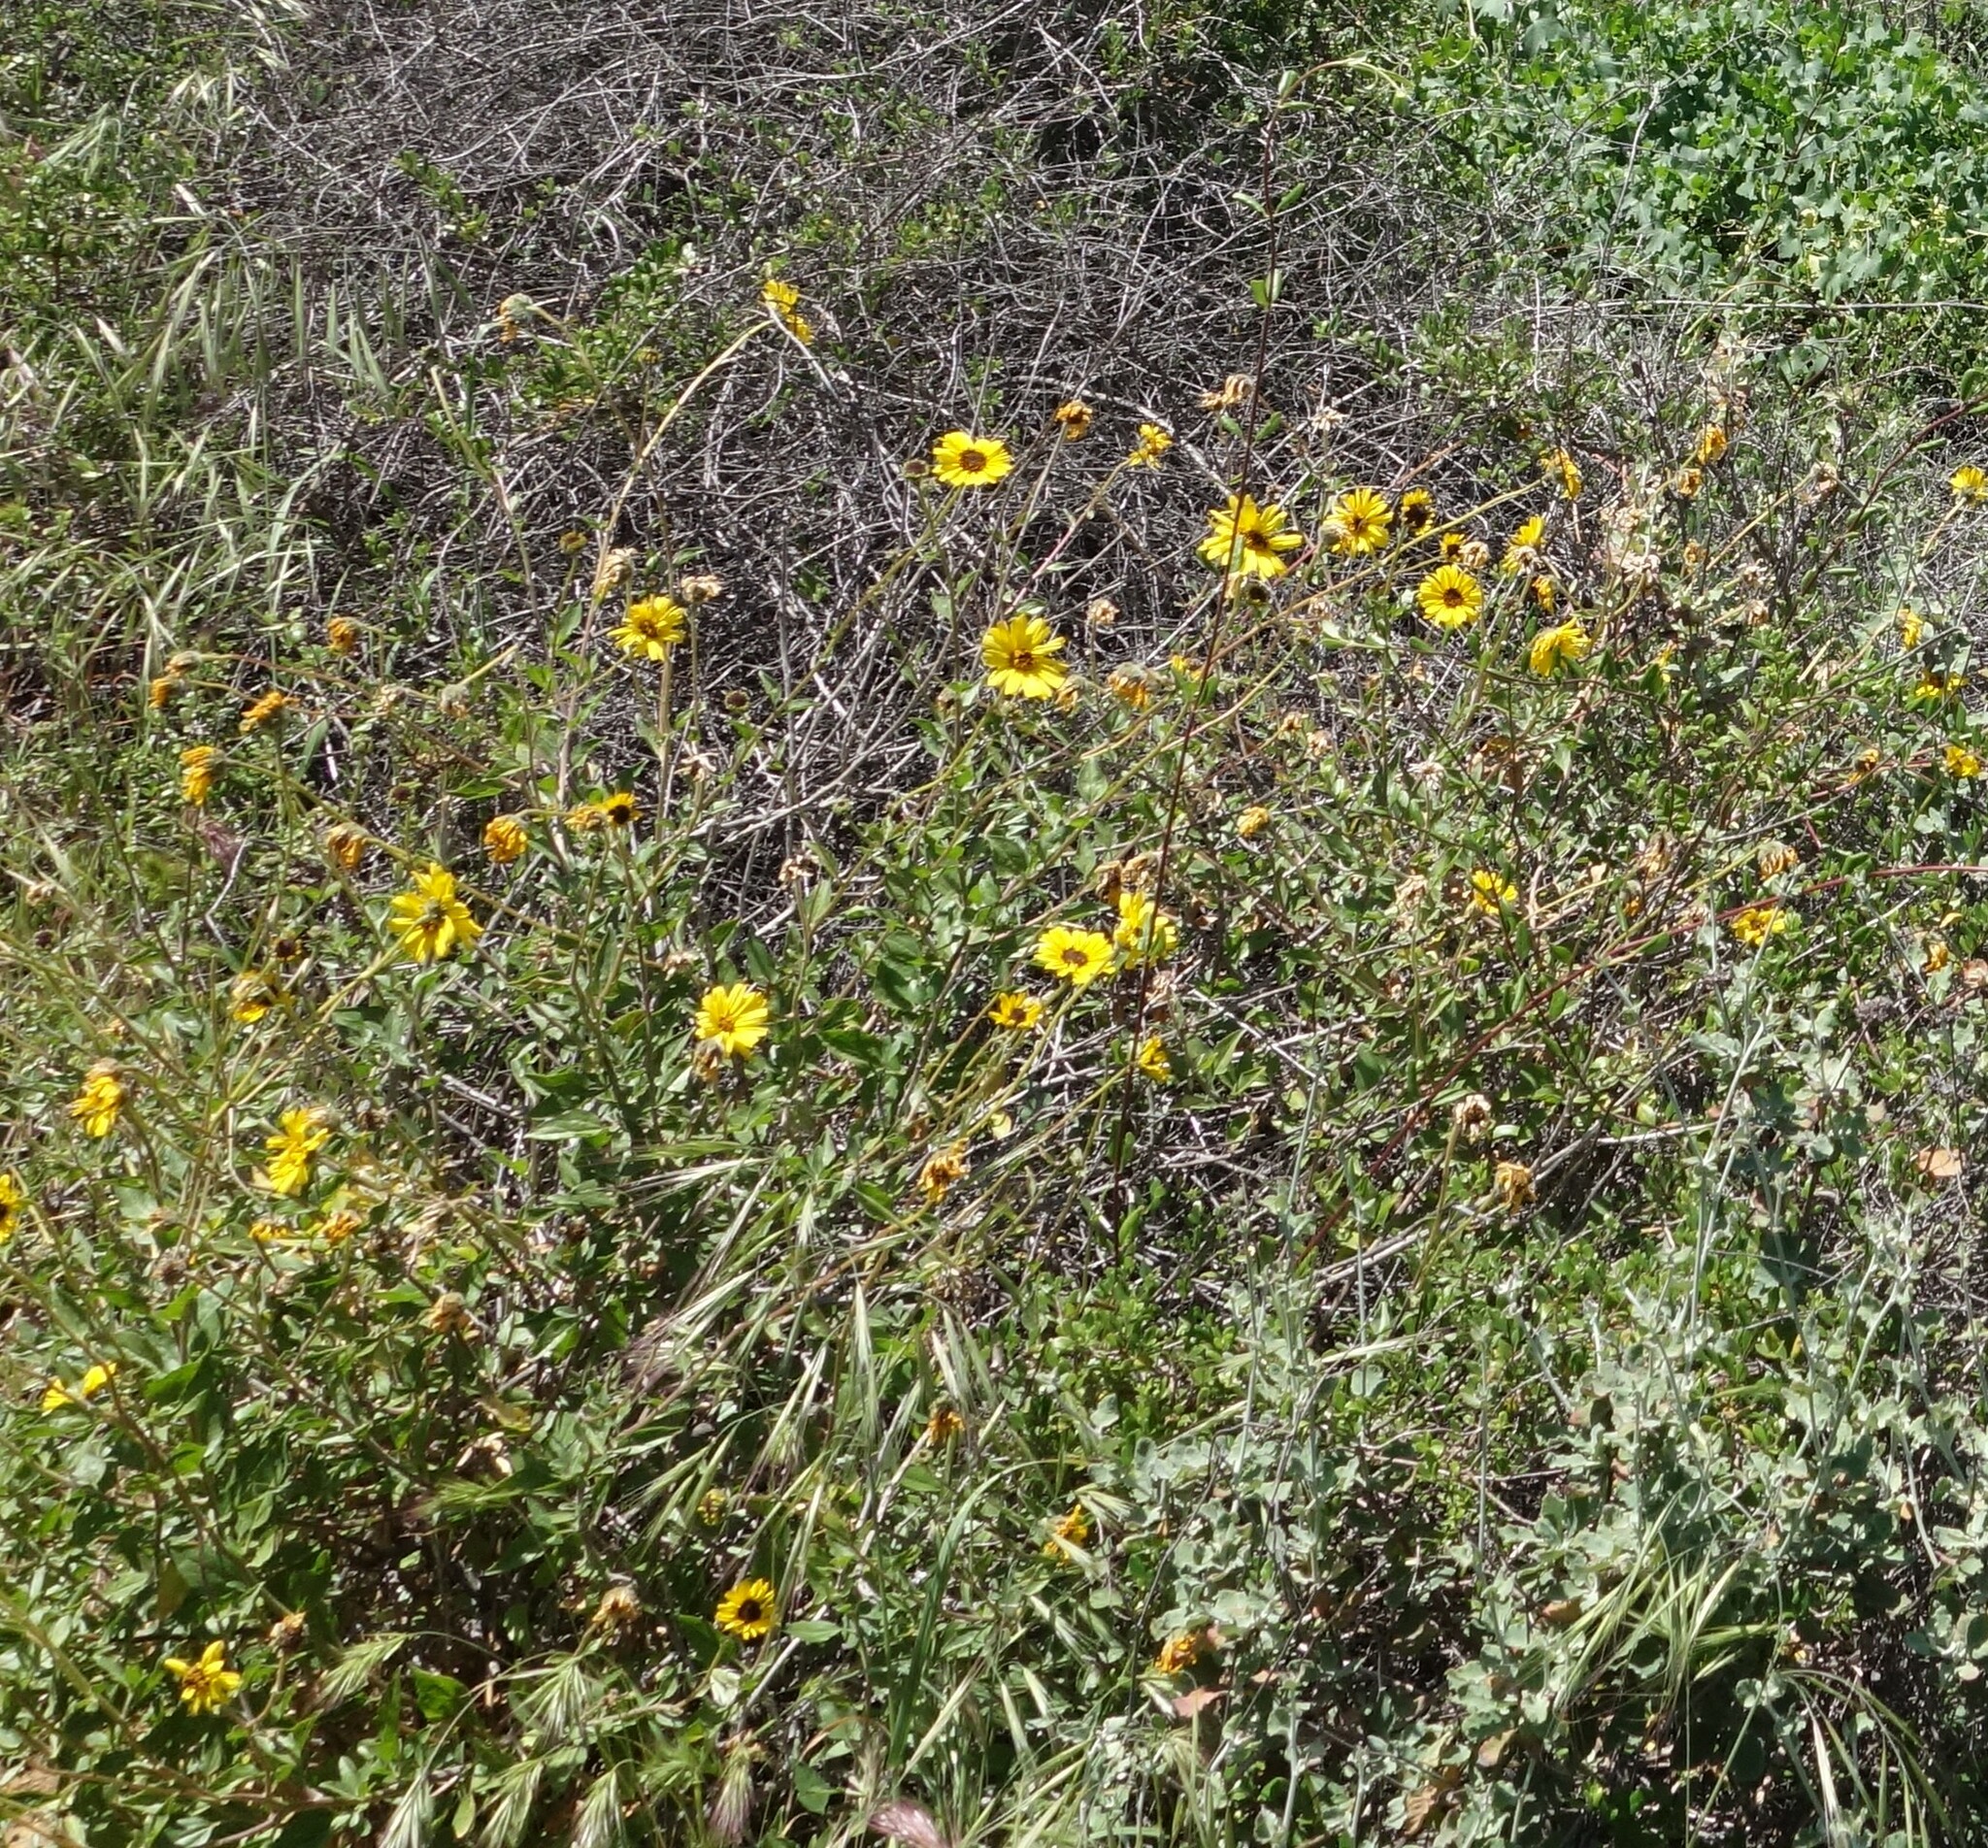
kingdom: Plantae
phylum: Tracheophyta
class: Magnoliopsida
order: Asterales
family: Asteraceae
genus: Encelia
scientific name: Encelia californica
